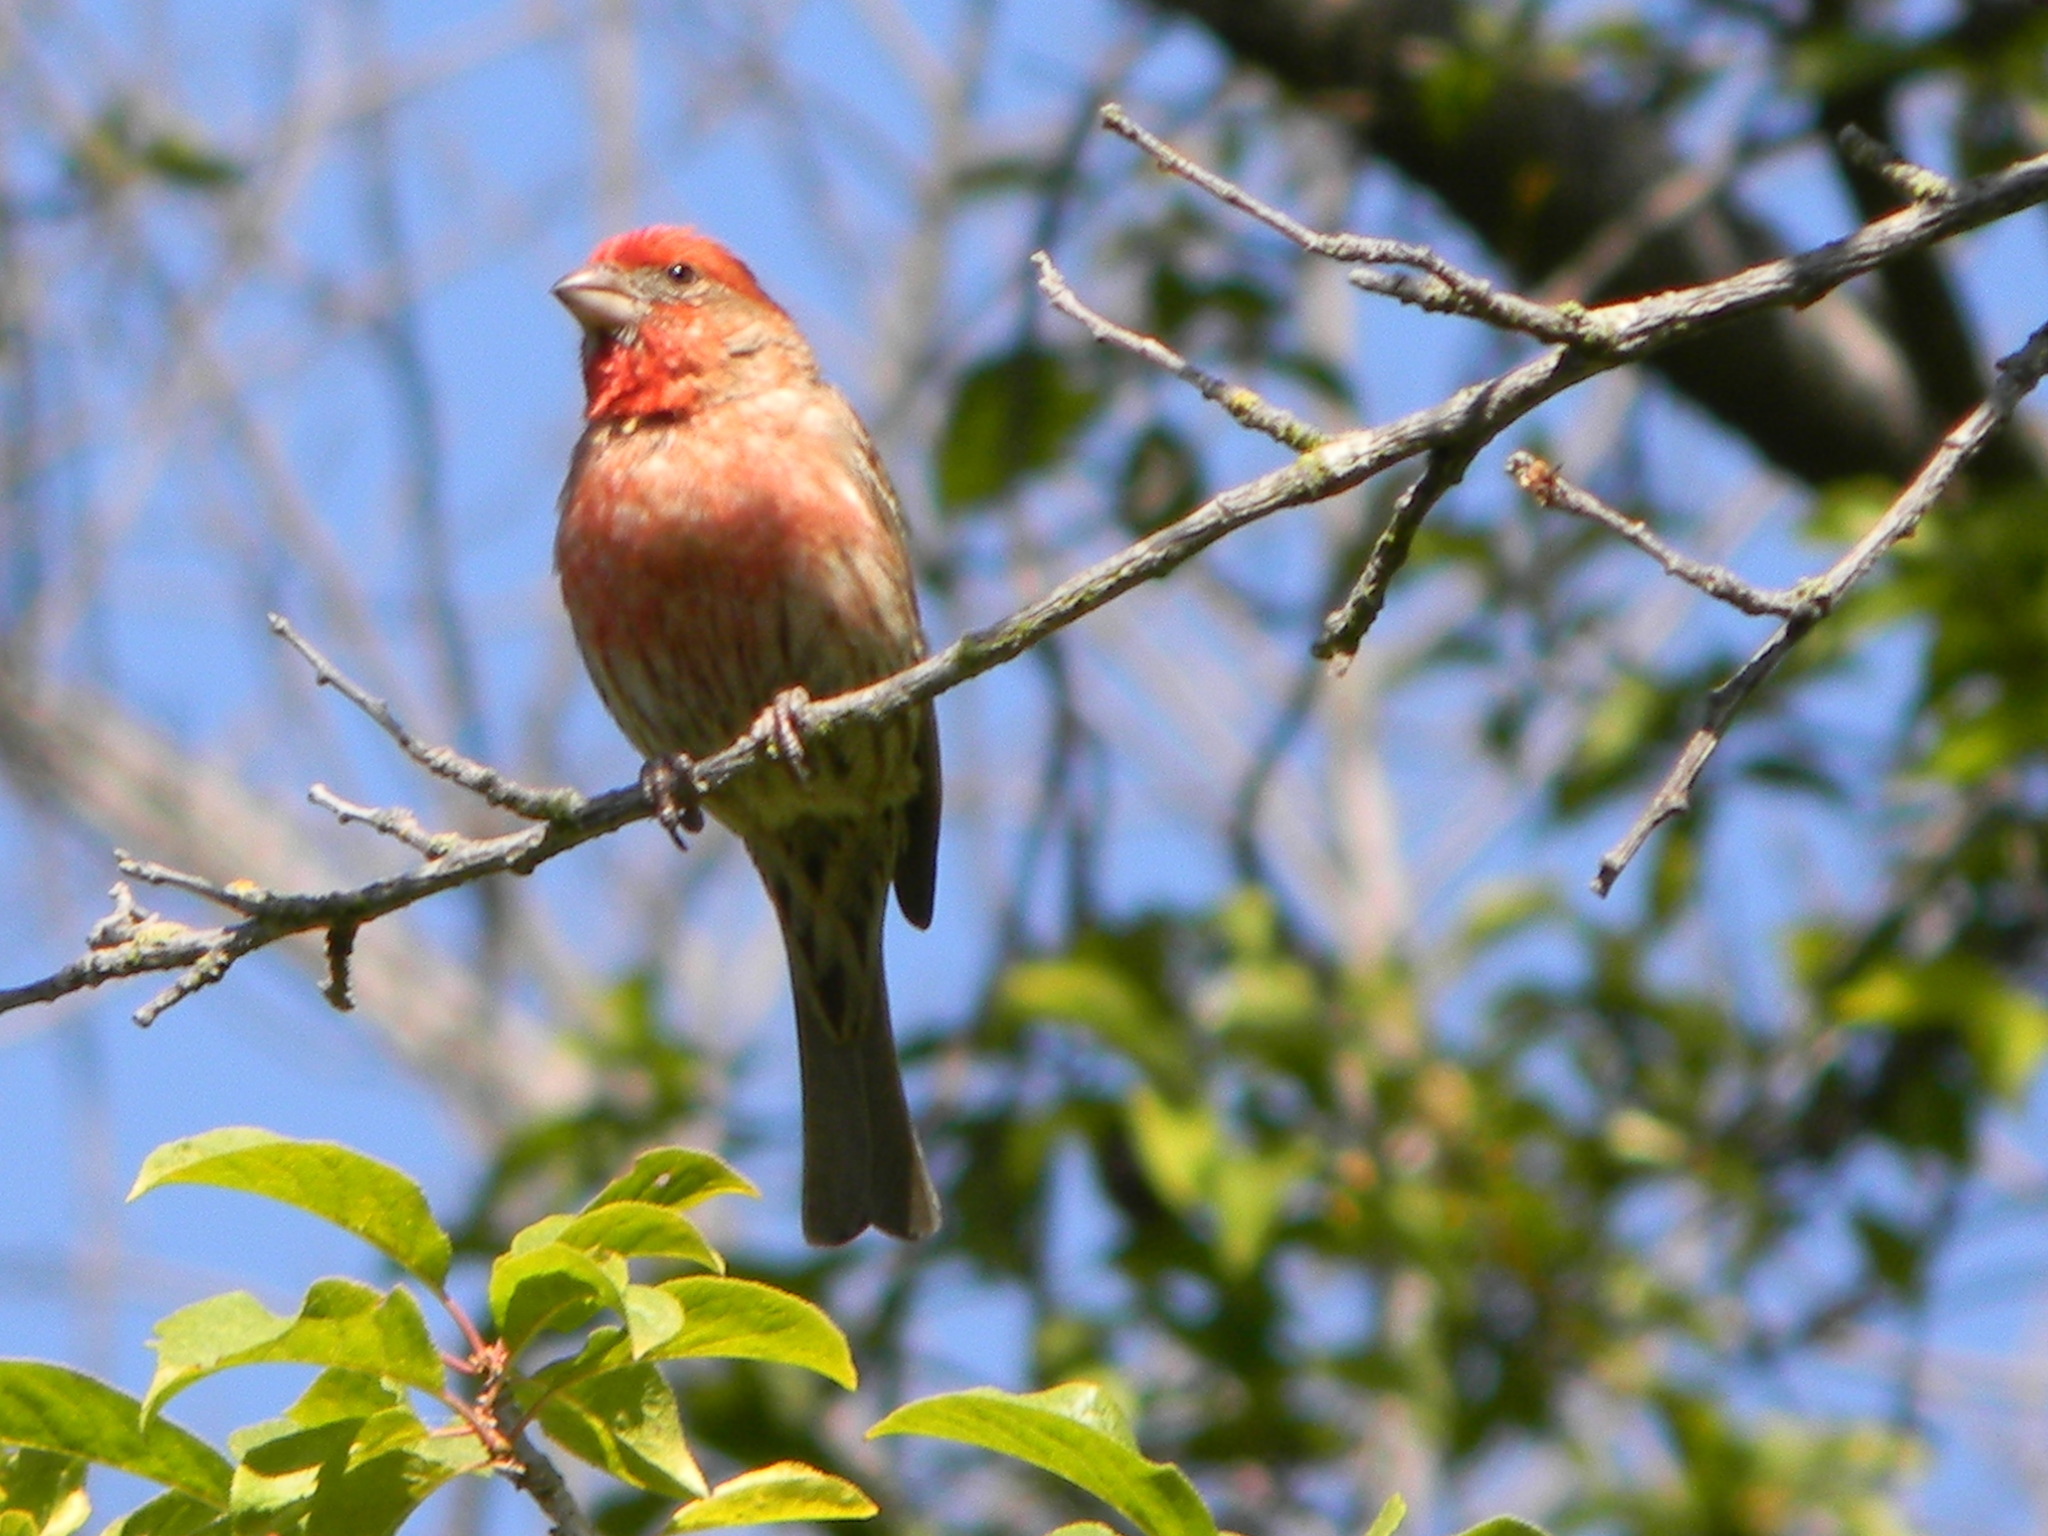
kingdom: Animalia
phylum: Chordata
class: Aves
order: Passeriformes
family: Fringillidae
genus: Haemorhous
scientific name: Haemorhous mexicanus
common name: House finch
